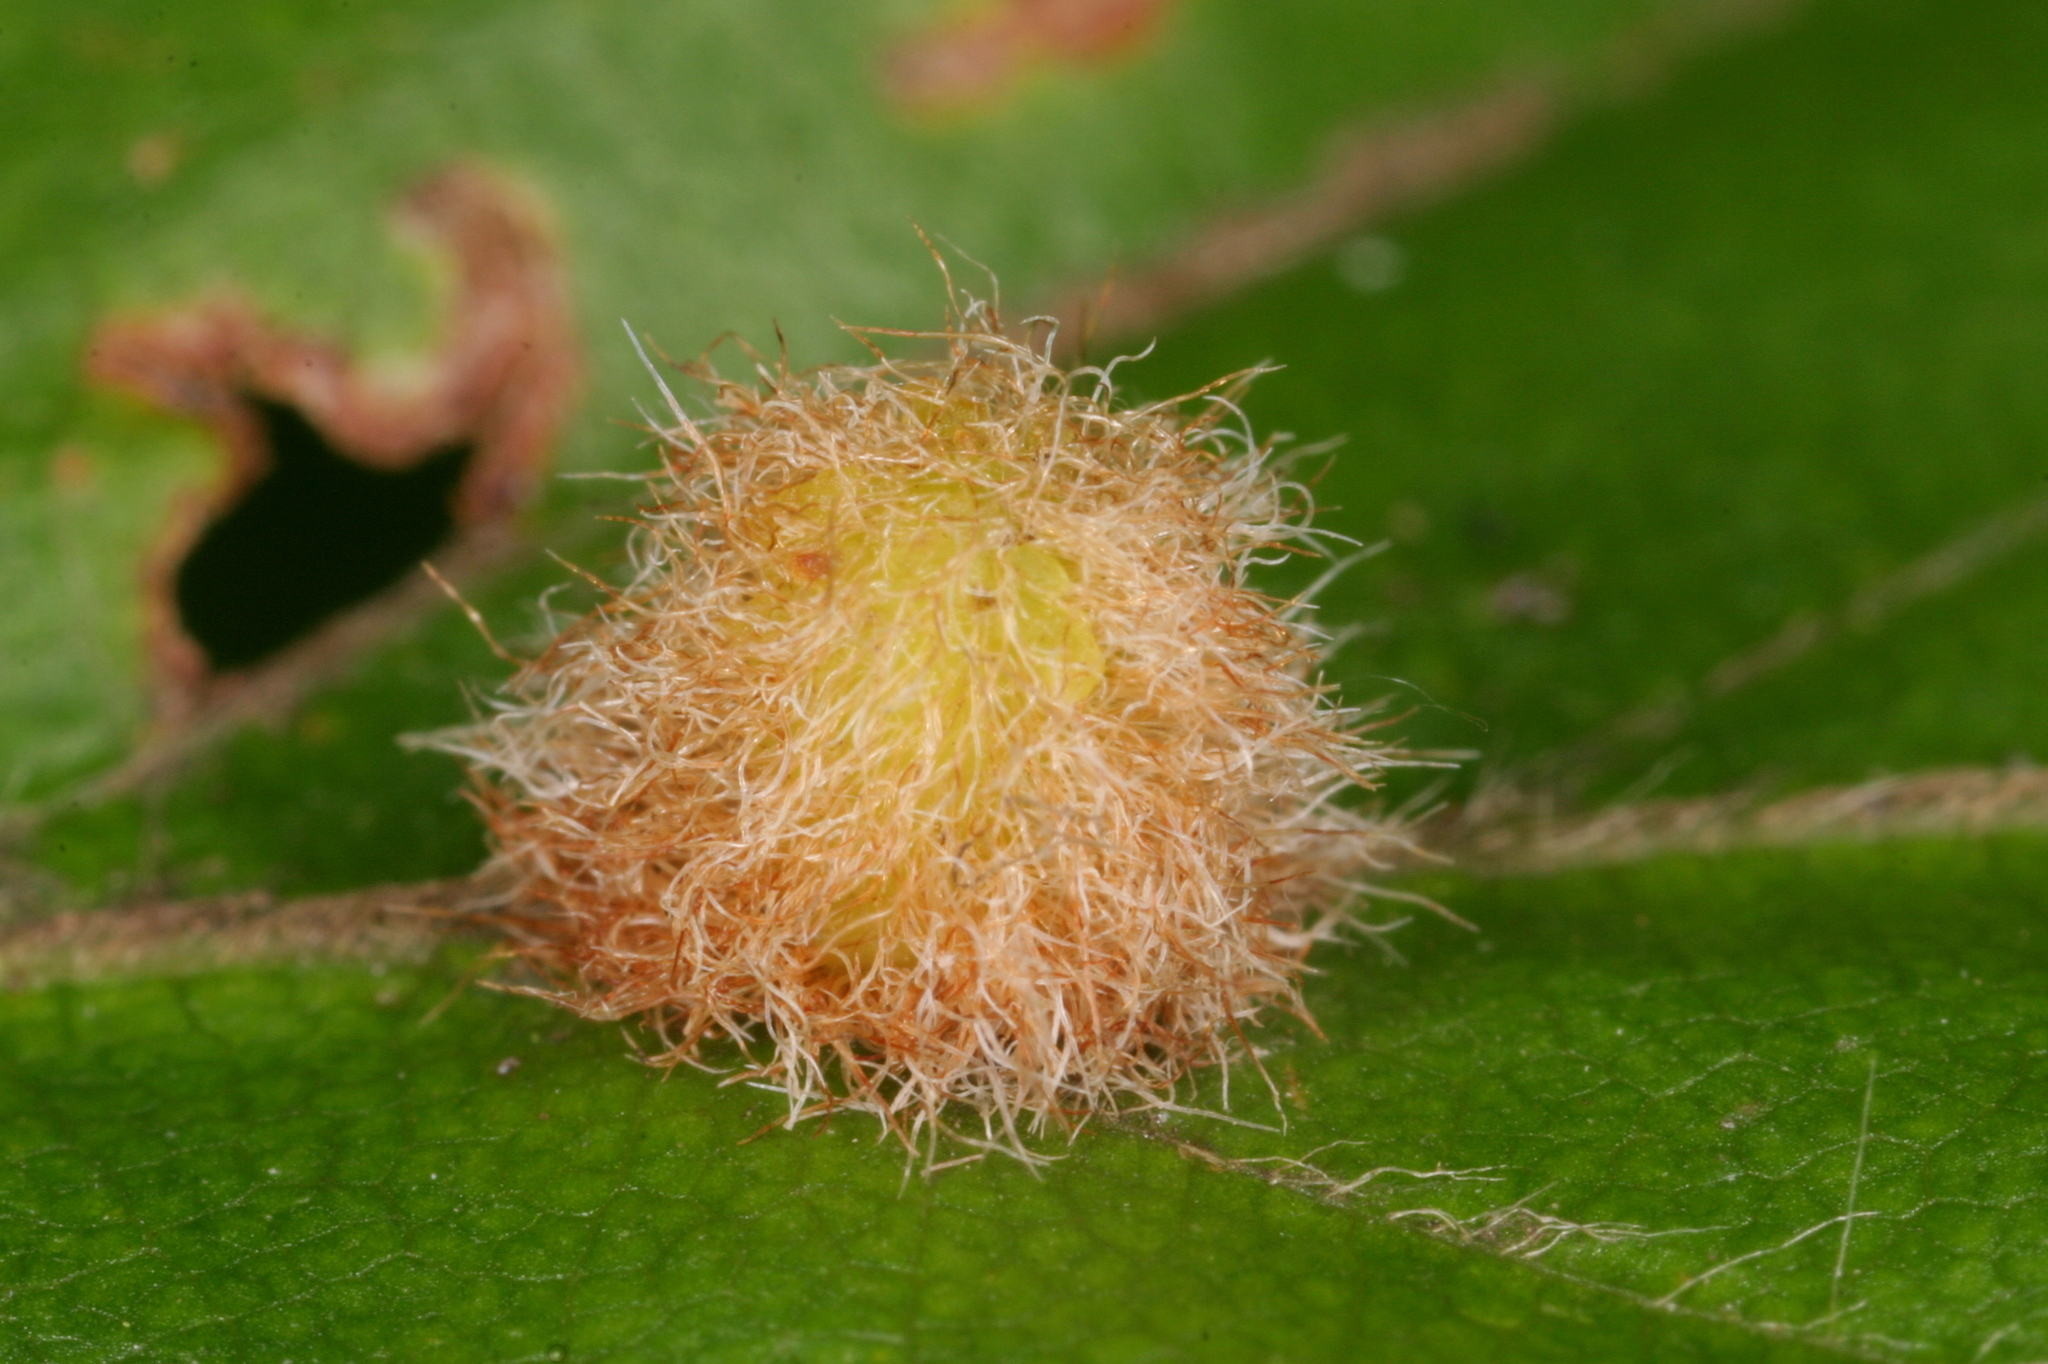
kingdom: Animalia
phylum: Arthropoda
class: Insecta
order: Diptera
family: Cecidomyiidae
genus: Hartigiola
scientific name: Hartigiola annulipes
